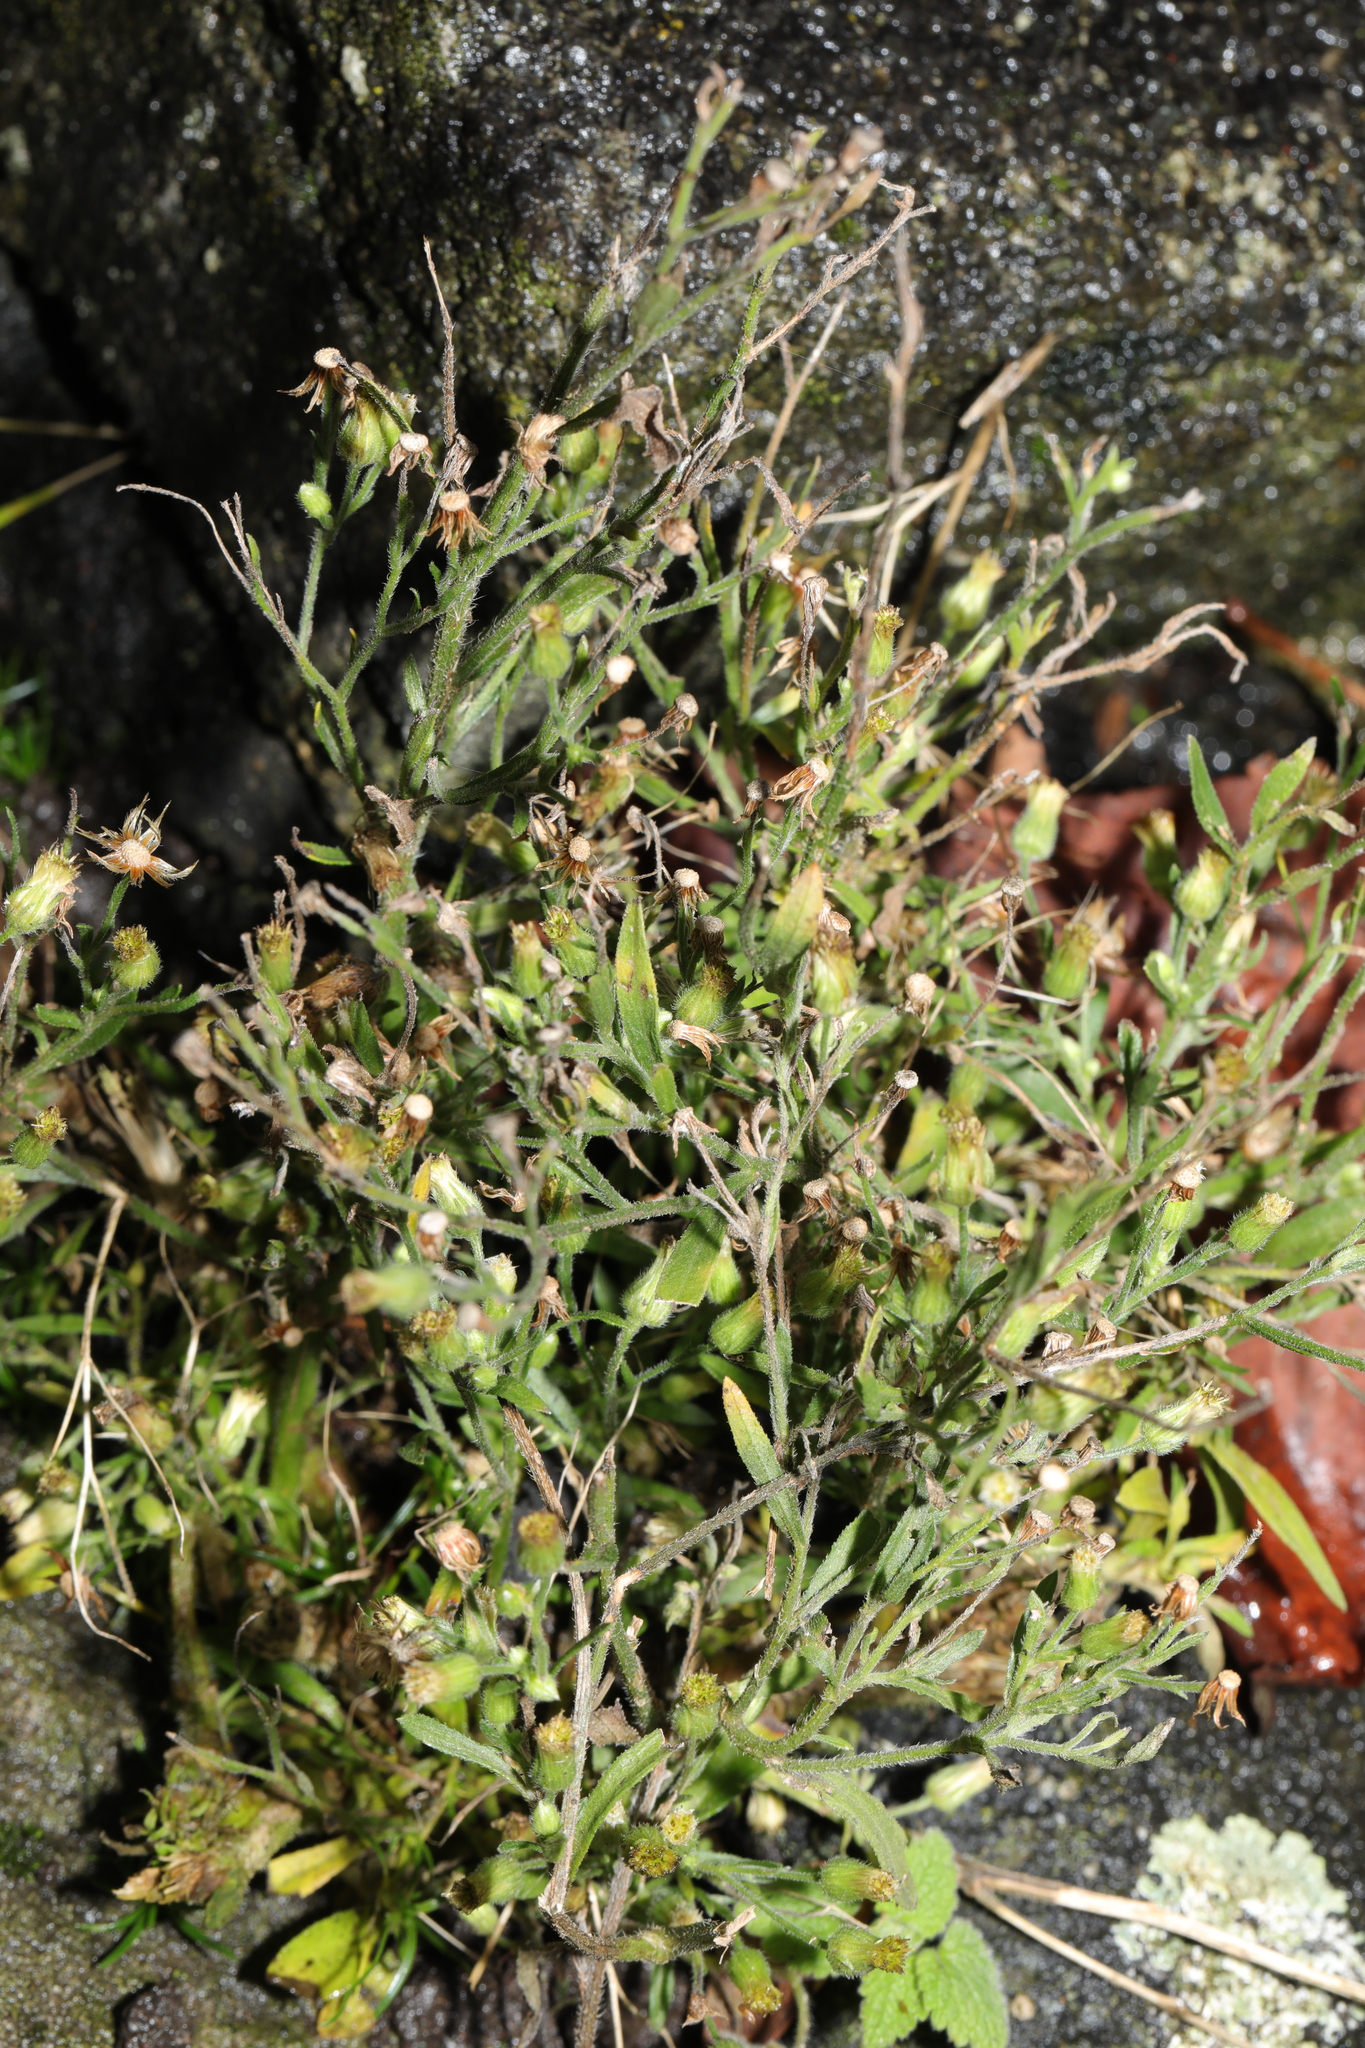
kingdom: Plantae
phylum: Tracheophyta
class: Magnoliopsida
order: Asterales
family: Asteraceae
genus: Erigeron
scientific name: Erigeron sumatrensis
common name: Daisy
